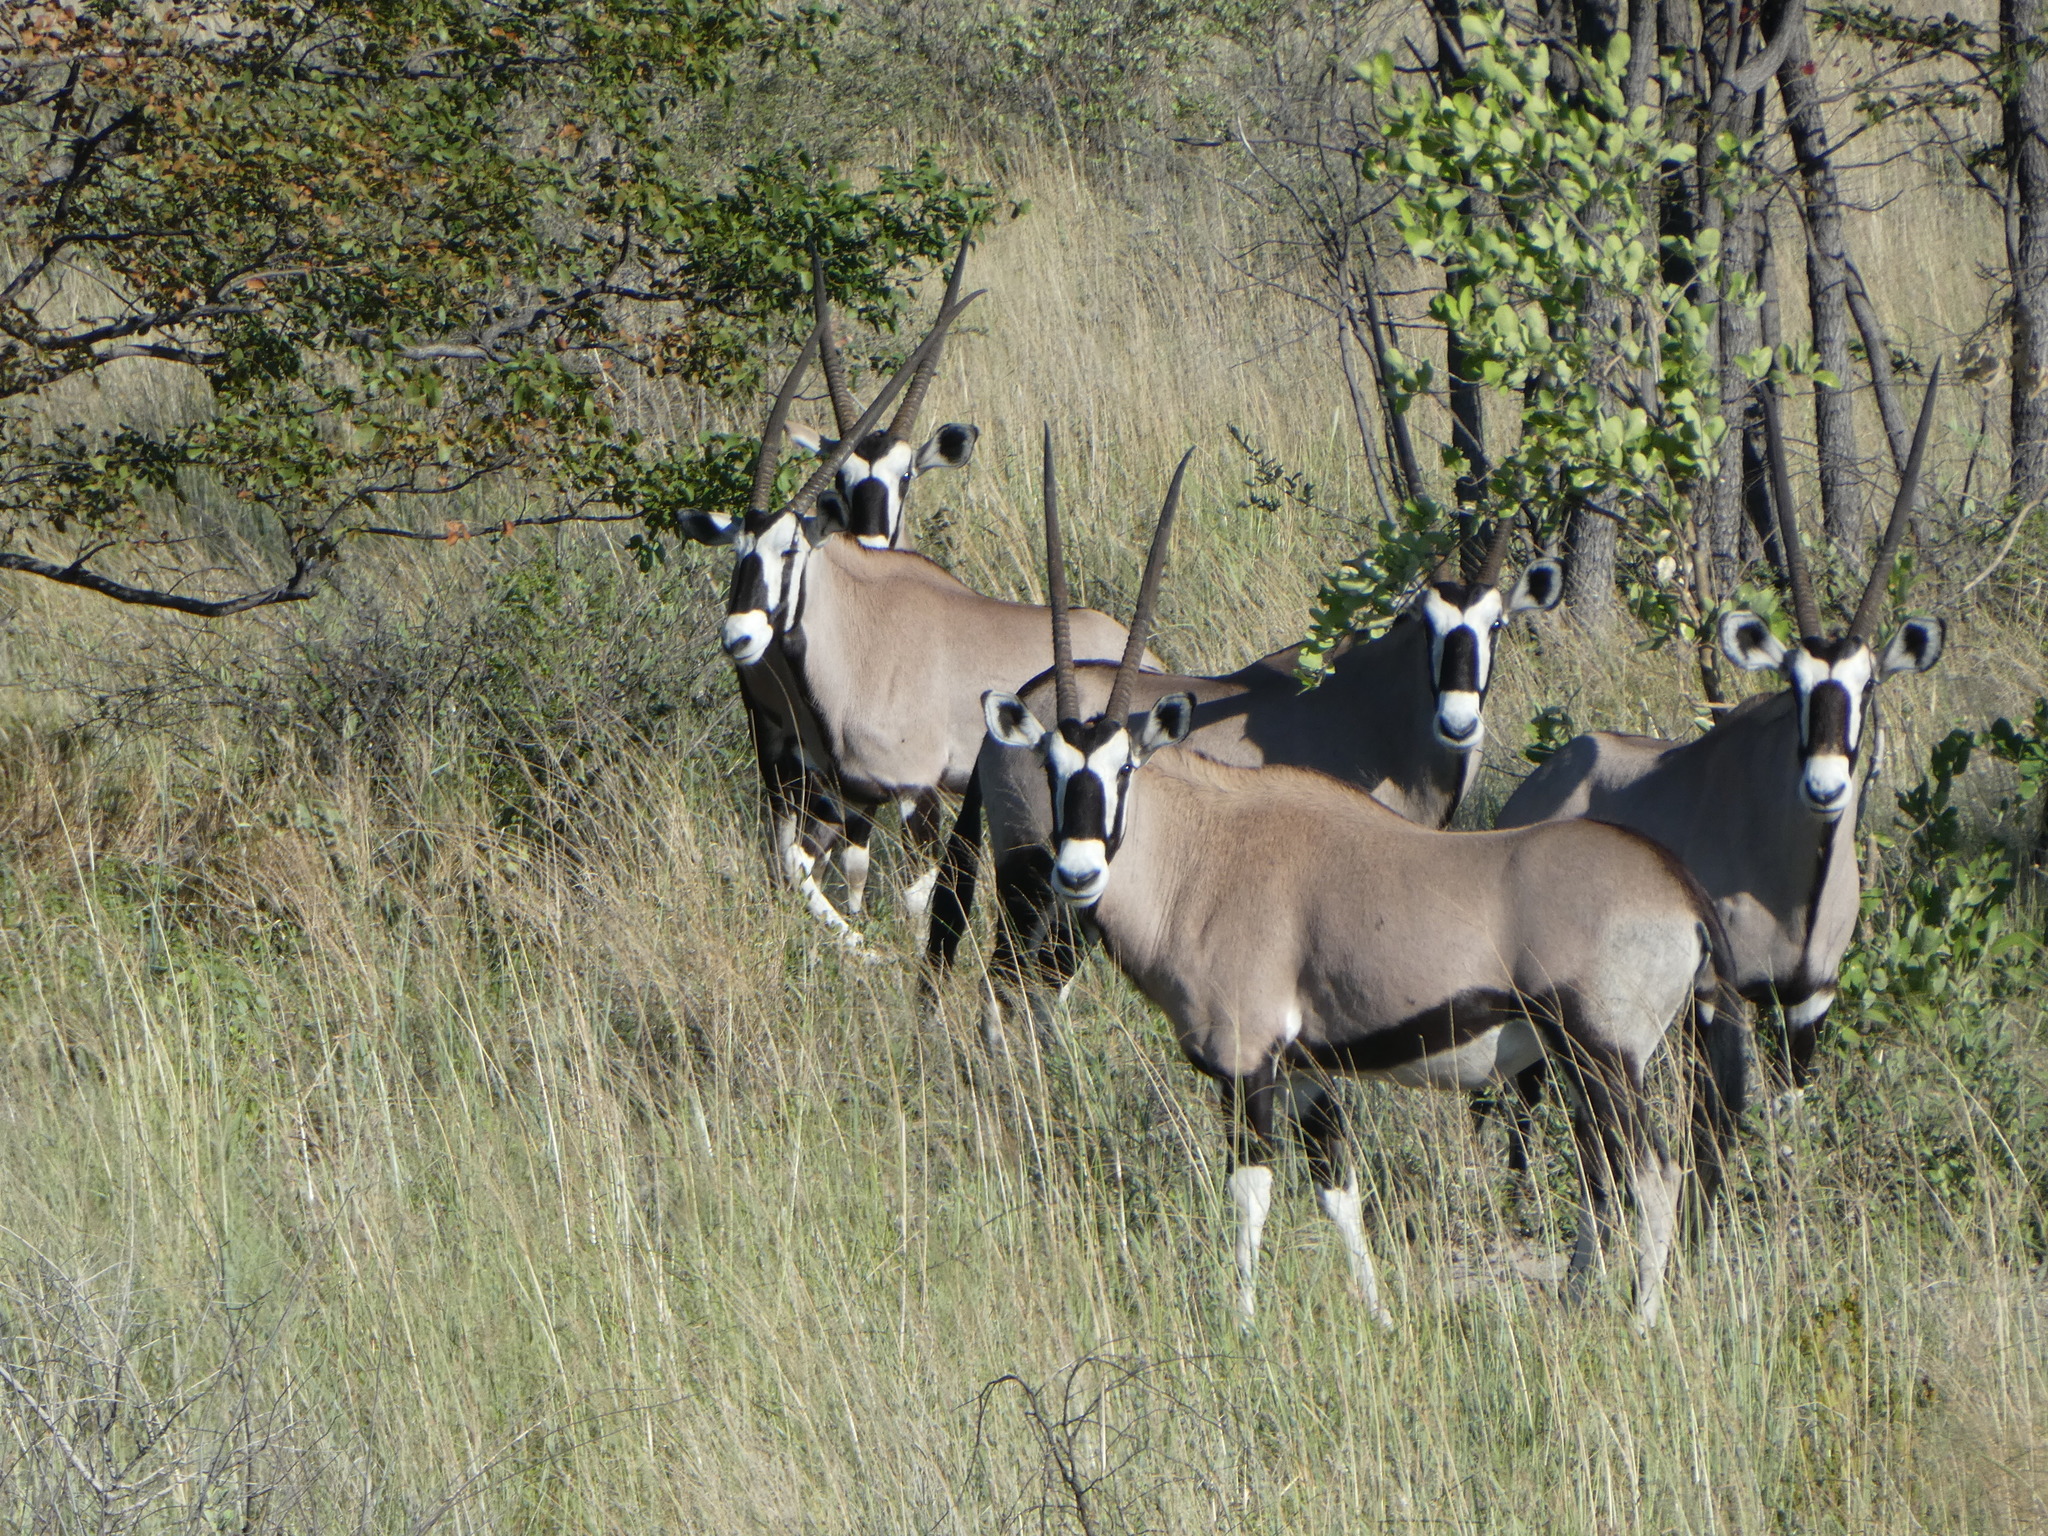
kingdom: Animalia
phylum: Chordata
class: Mammalia
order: Artiodactyla
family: Bovidae
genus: Oryx
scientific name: Oryx gazella
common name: Gemsbok
